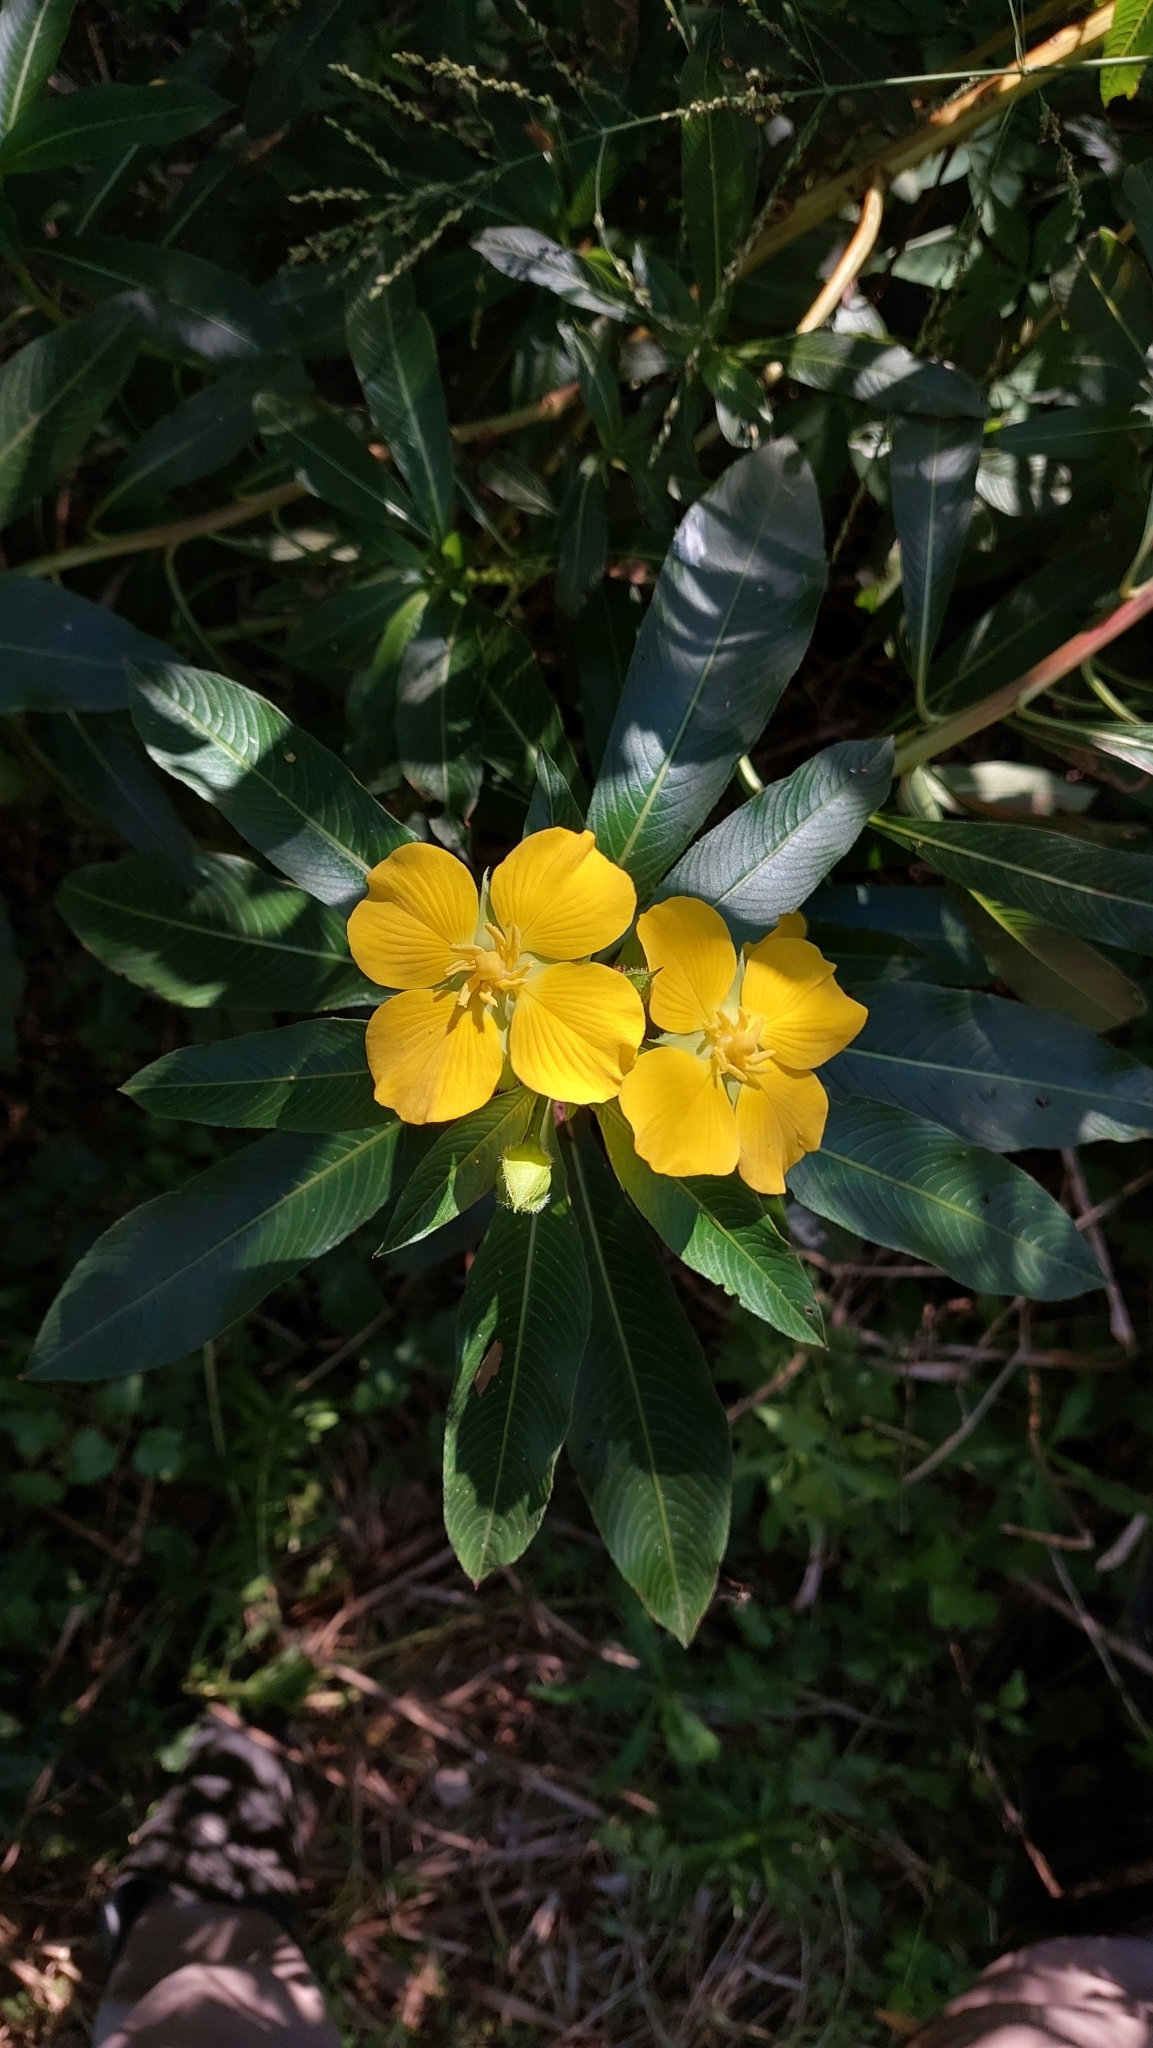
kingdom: Plantae
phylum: Tracheophyta
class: Magnoliopsida
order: Myrtales
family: Onagraceae
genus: Ludwigia
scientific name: Ludwigia elegans
